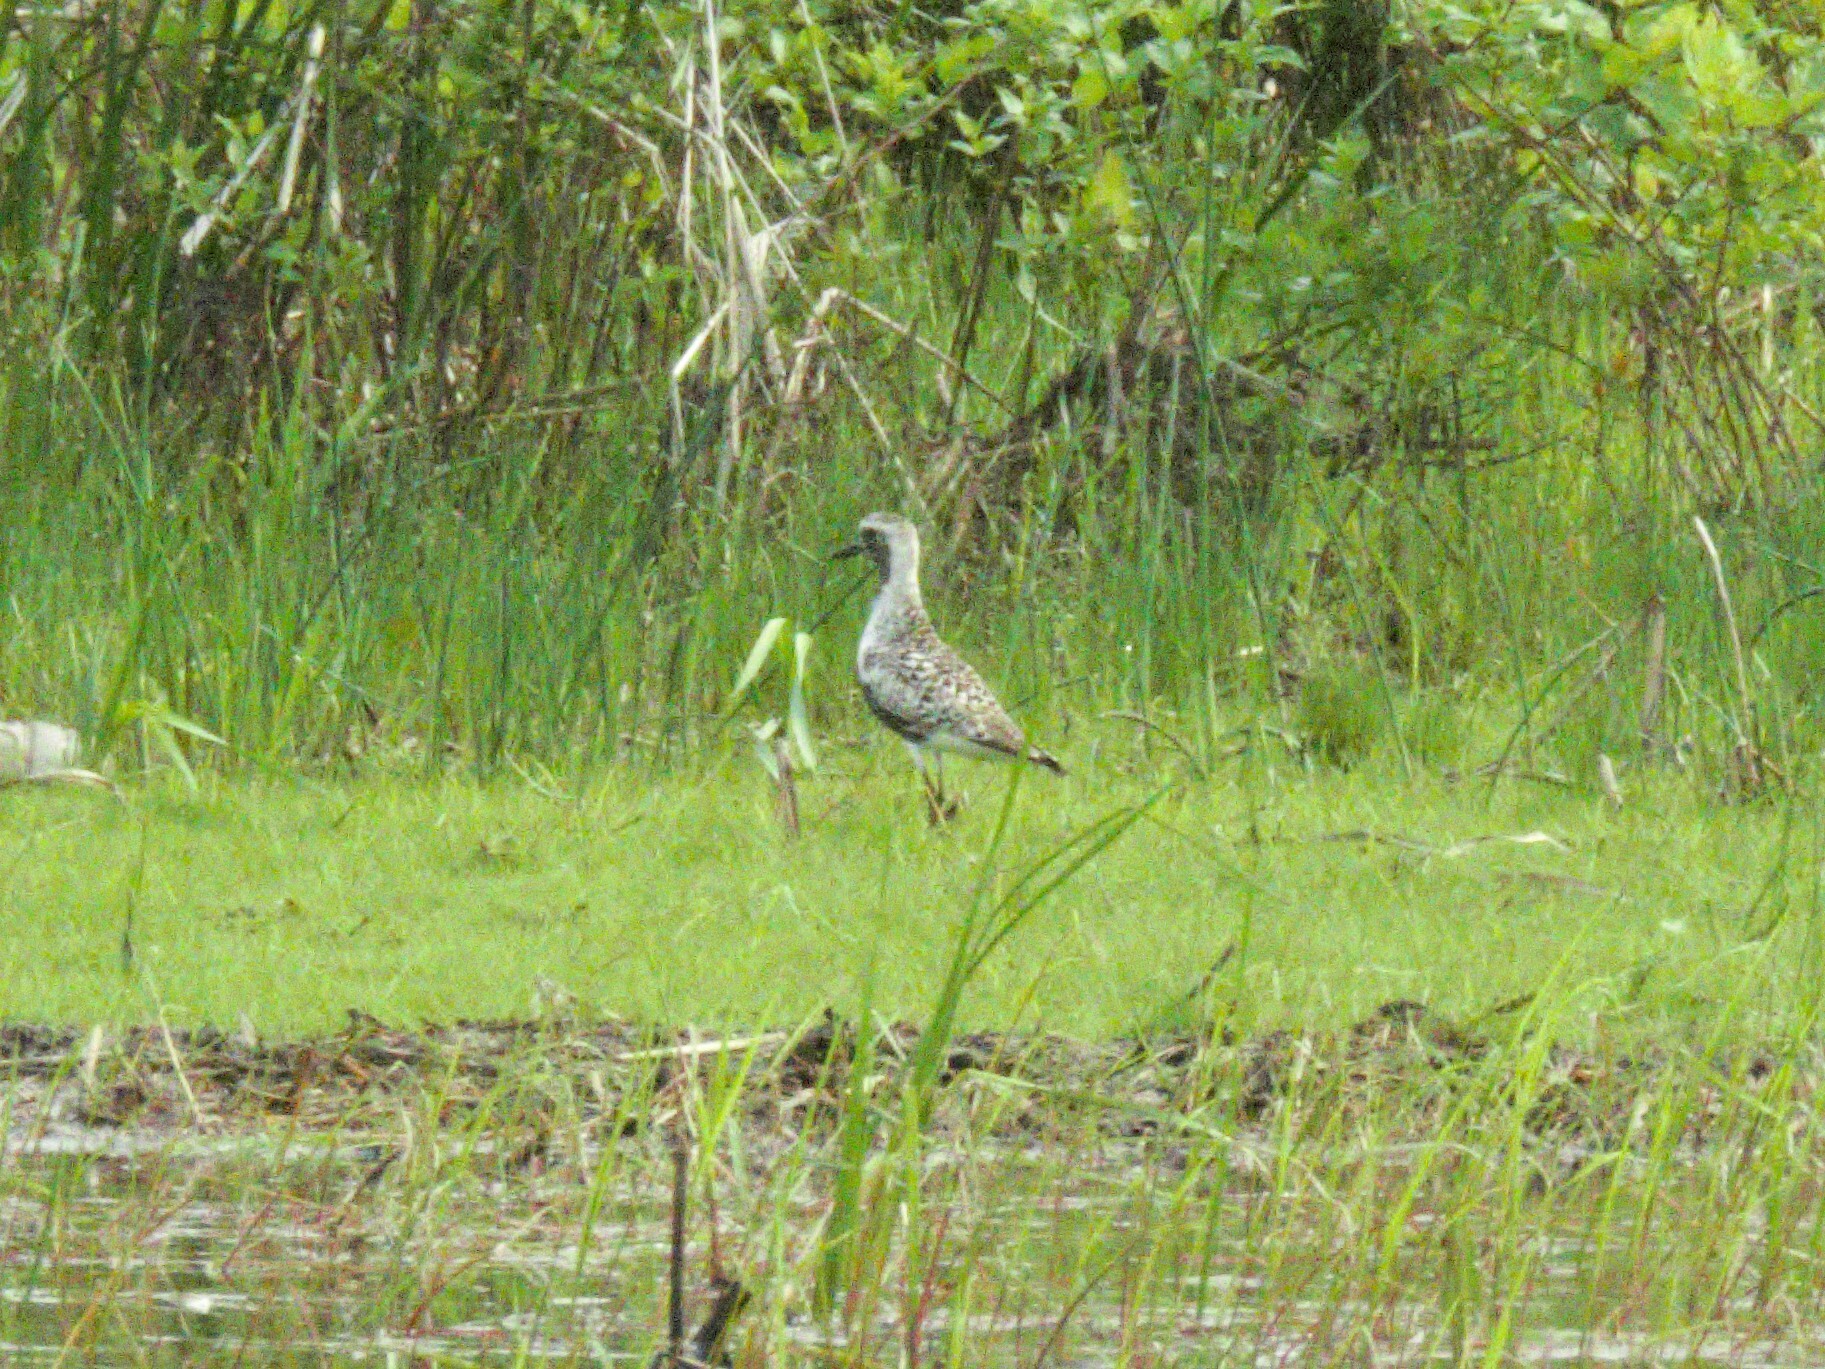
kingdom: Animalia
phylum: Chordata
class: Aves
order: Charadriiformes
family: Charadriidae
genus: Pluvialis
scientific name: Pluvialis squatarola
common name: Grey plover
